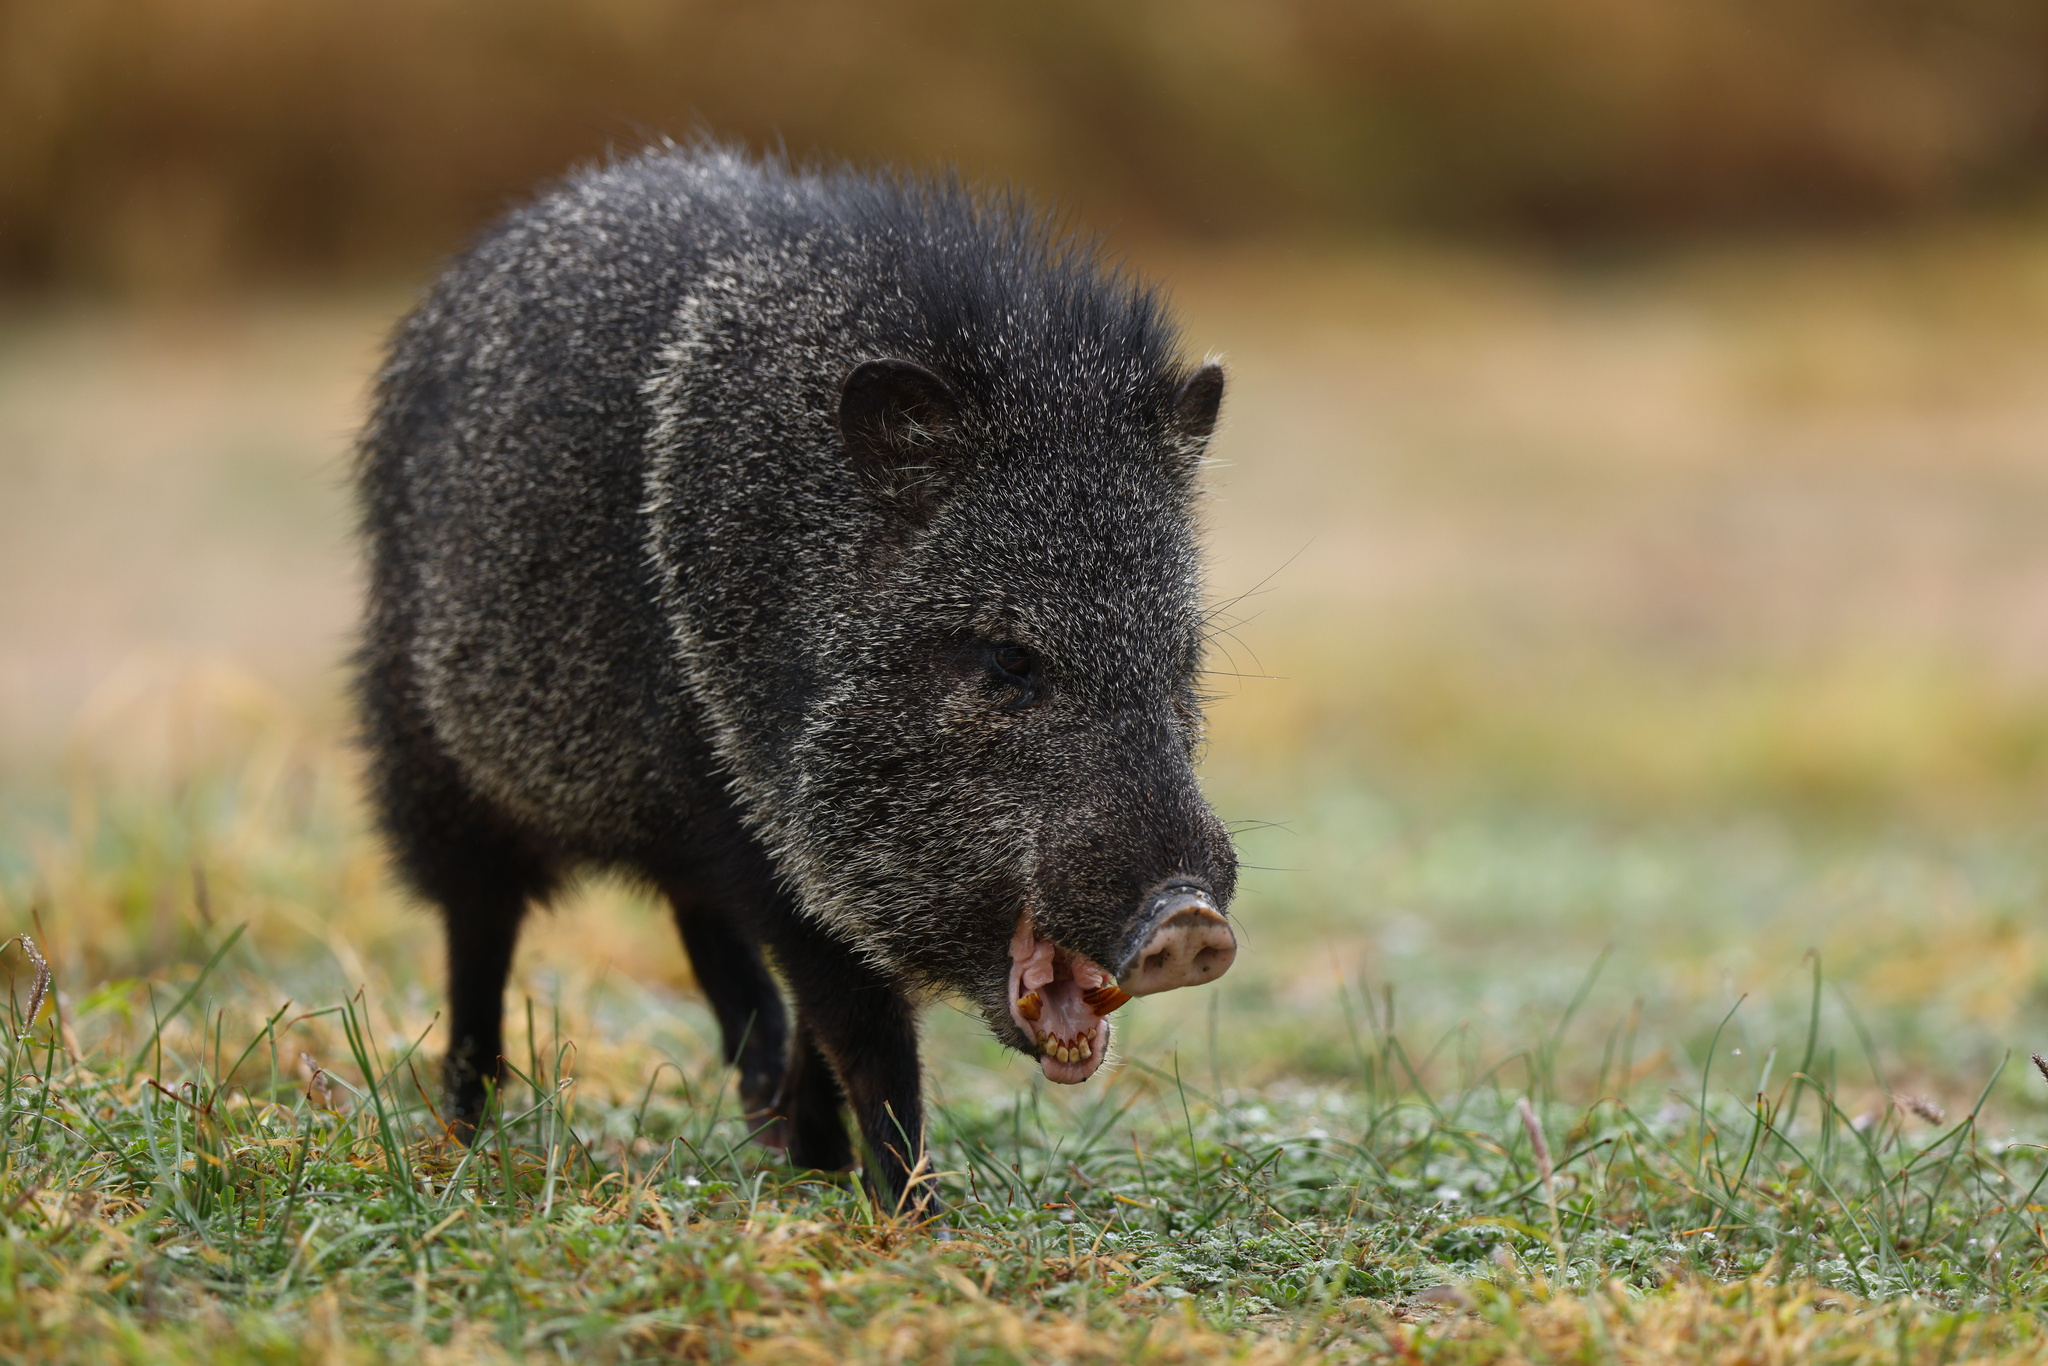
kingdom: Animalia
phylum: Chordata
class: Mammalia
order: Artiodactyla
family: Tayassuidae
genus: Pecari
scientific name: Pecari tajacu
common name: Collared peccary
